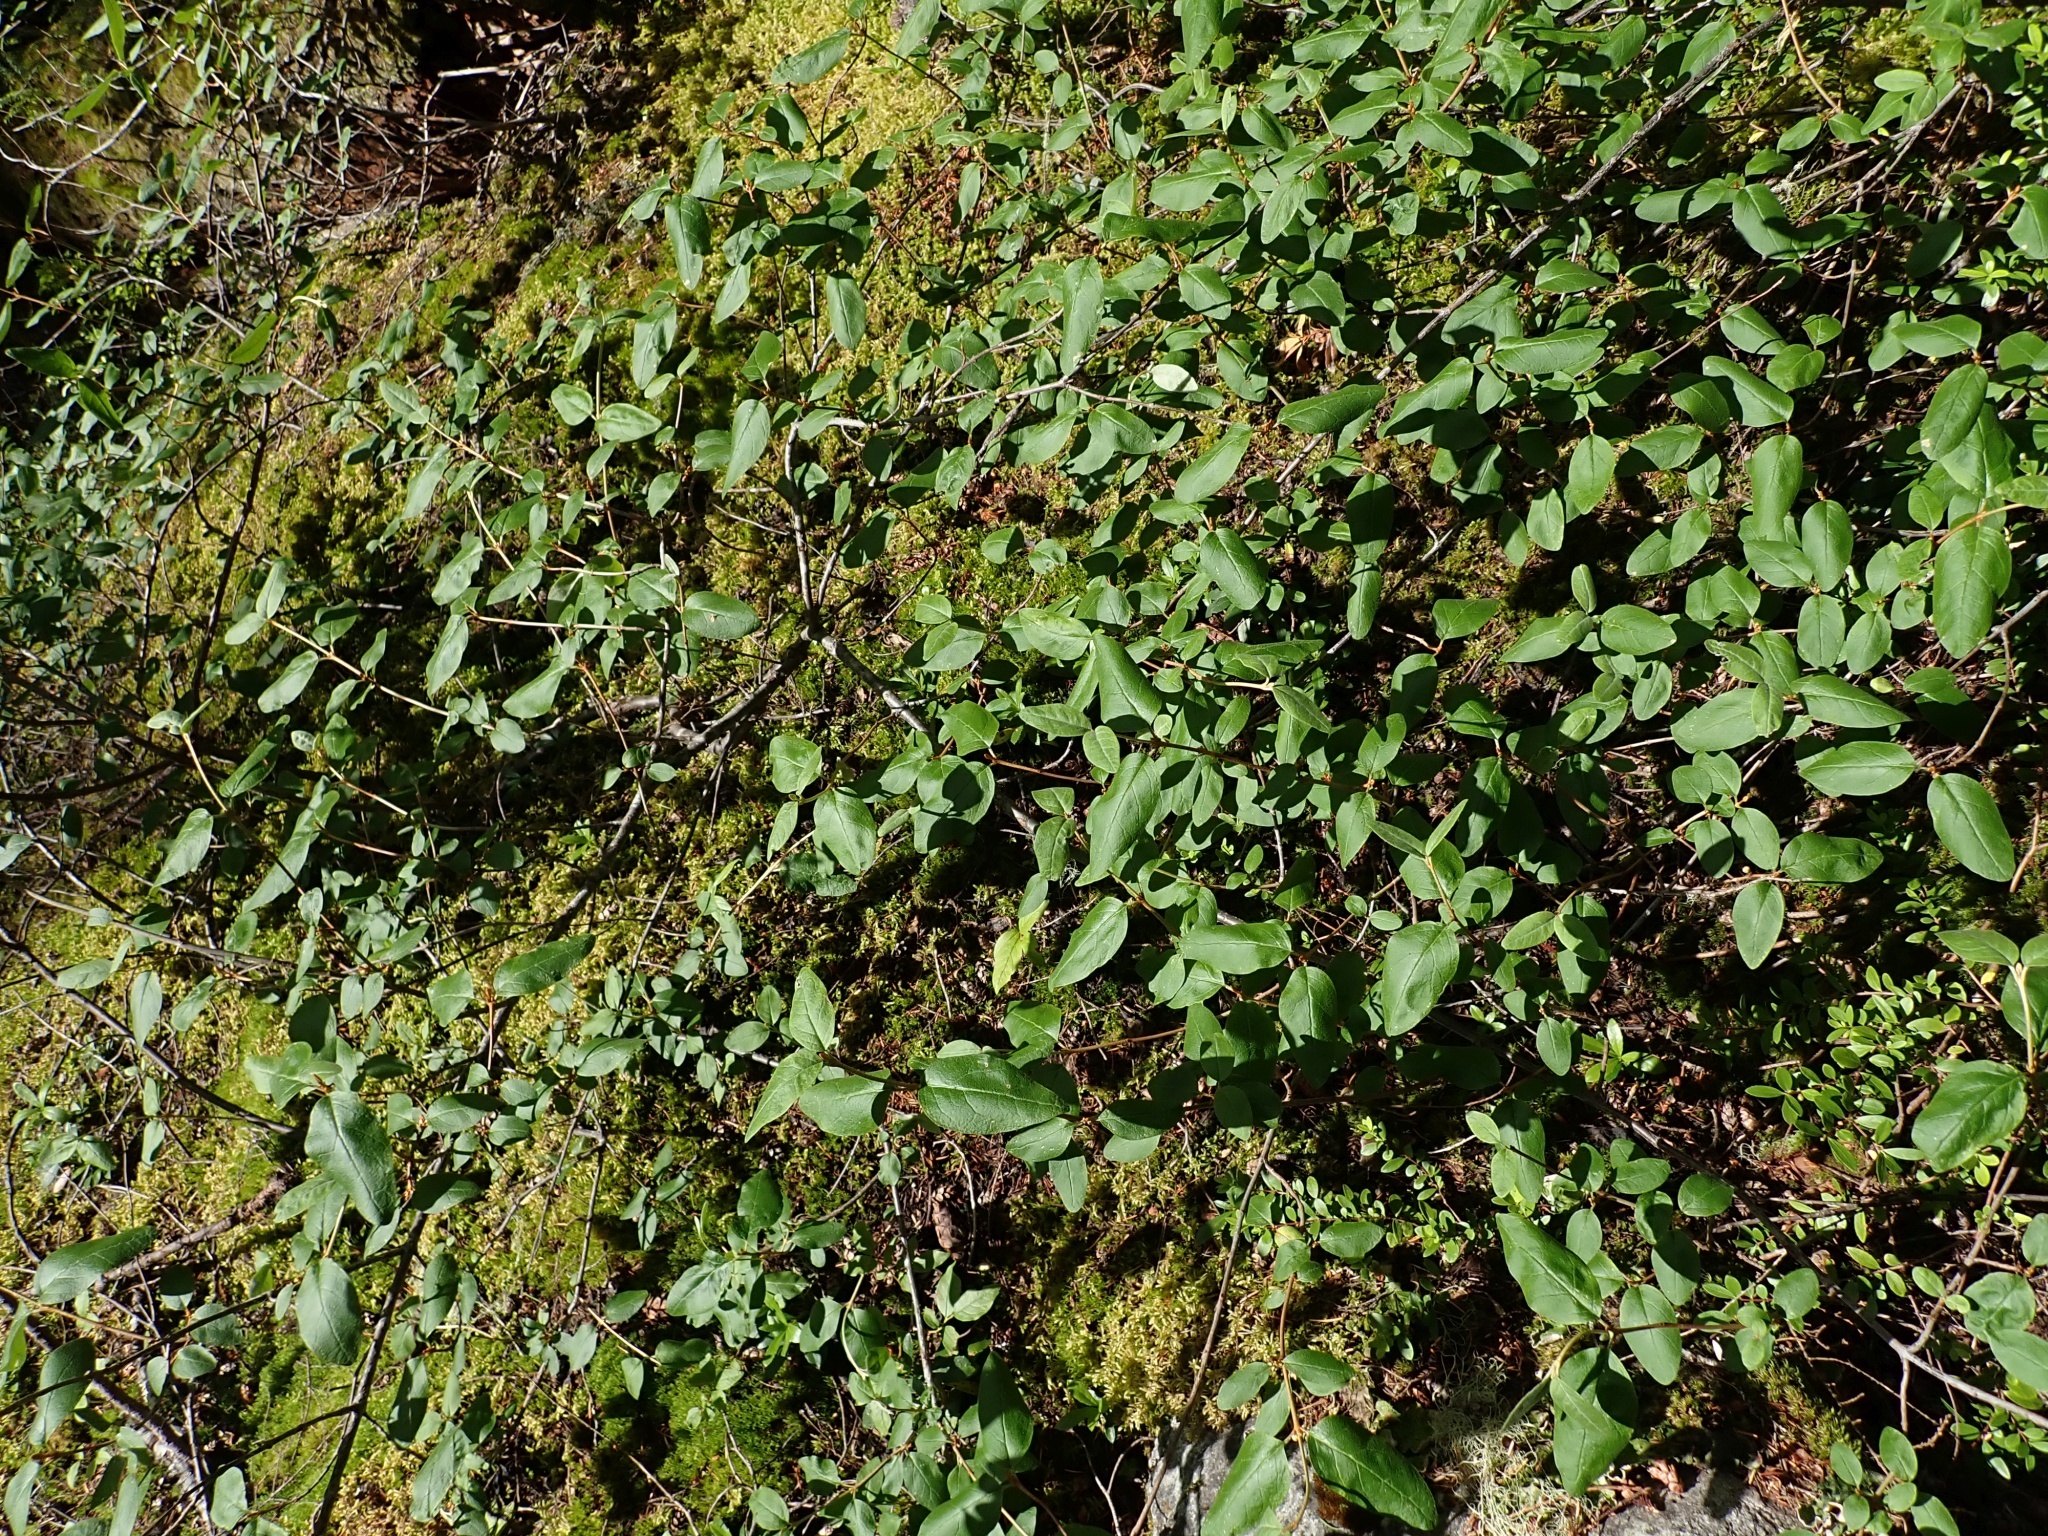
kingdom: Plantae
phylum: Tracheophyta
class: Magnoliopsida
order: Rosales
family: Elaeagnaceae
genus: Shepherdia
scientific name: Shepherdia canadensis
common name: Soapberry
